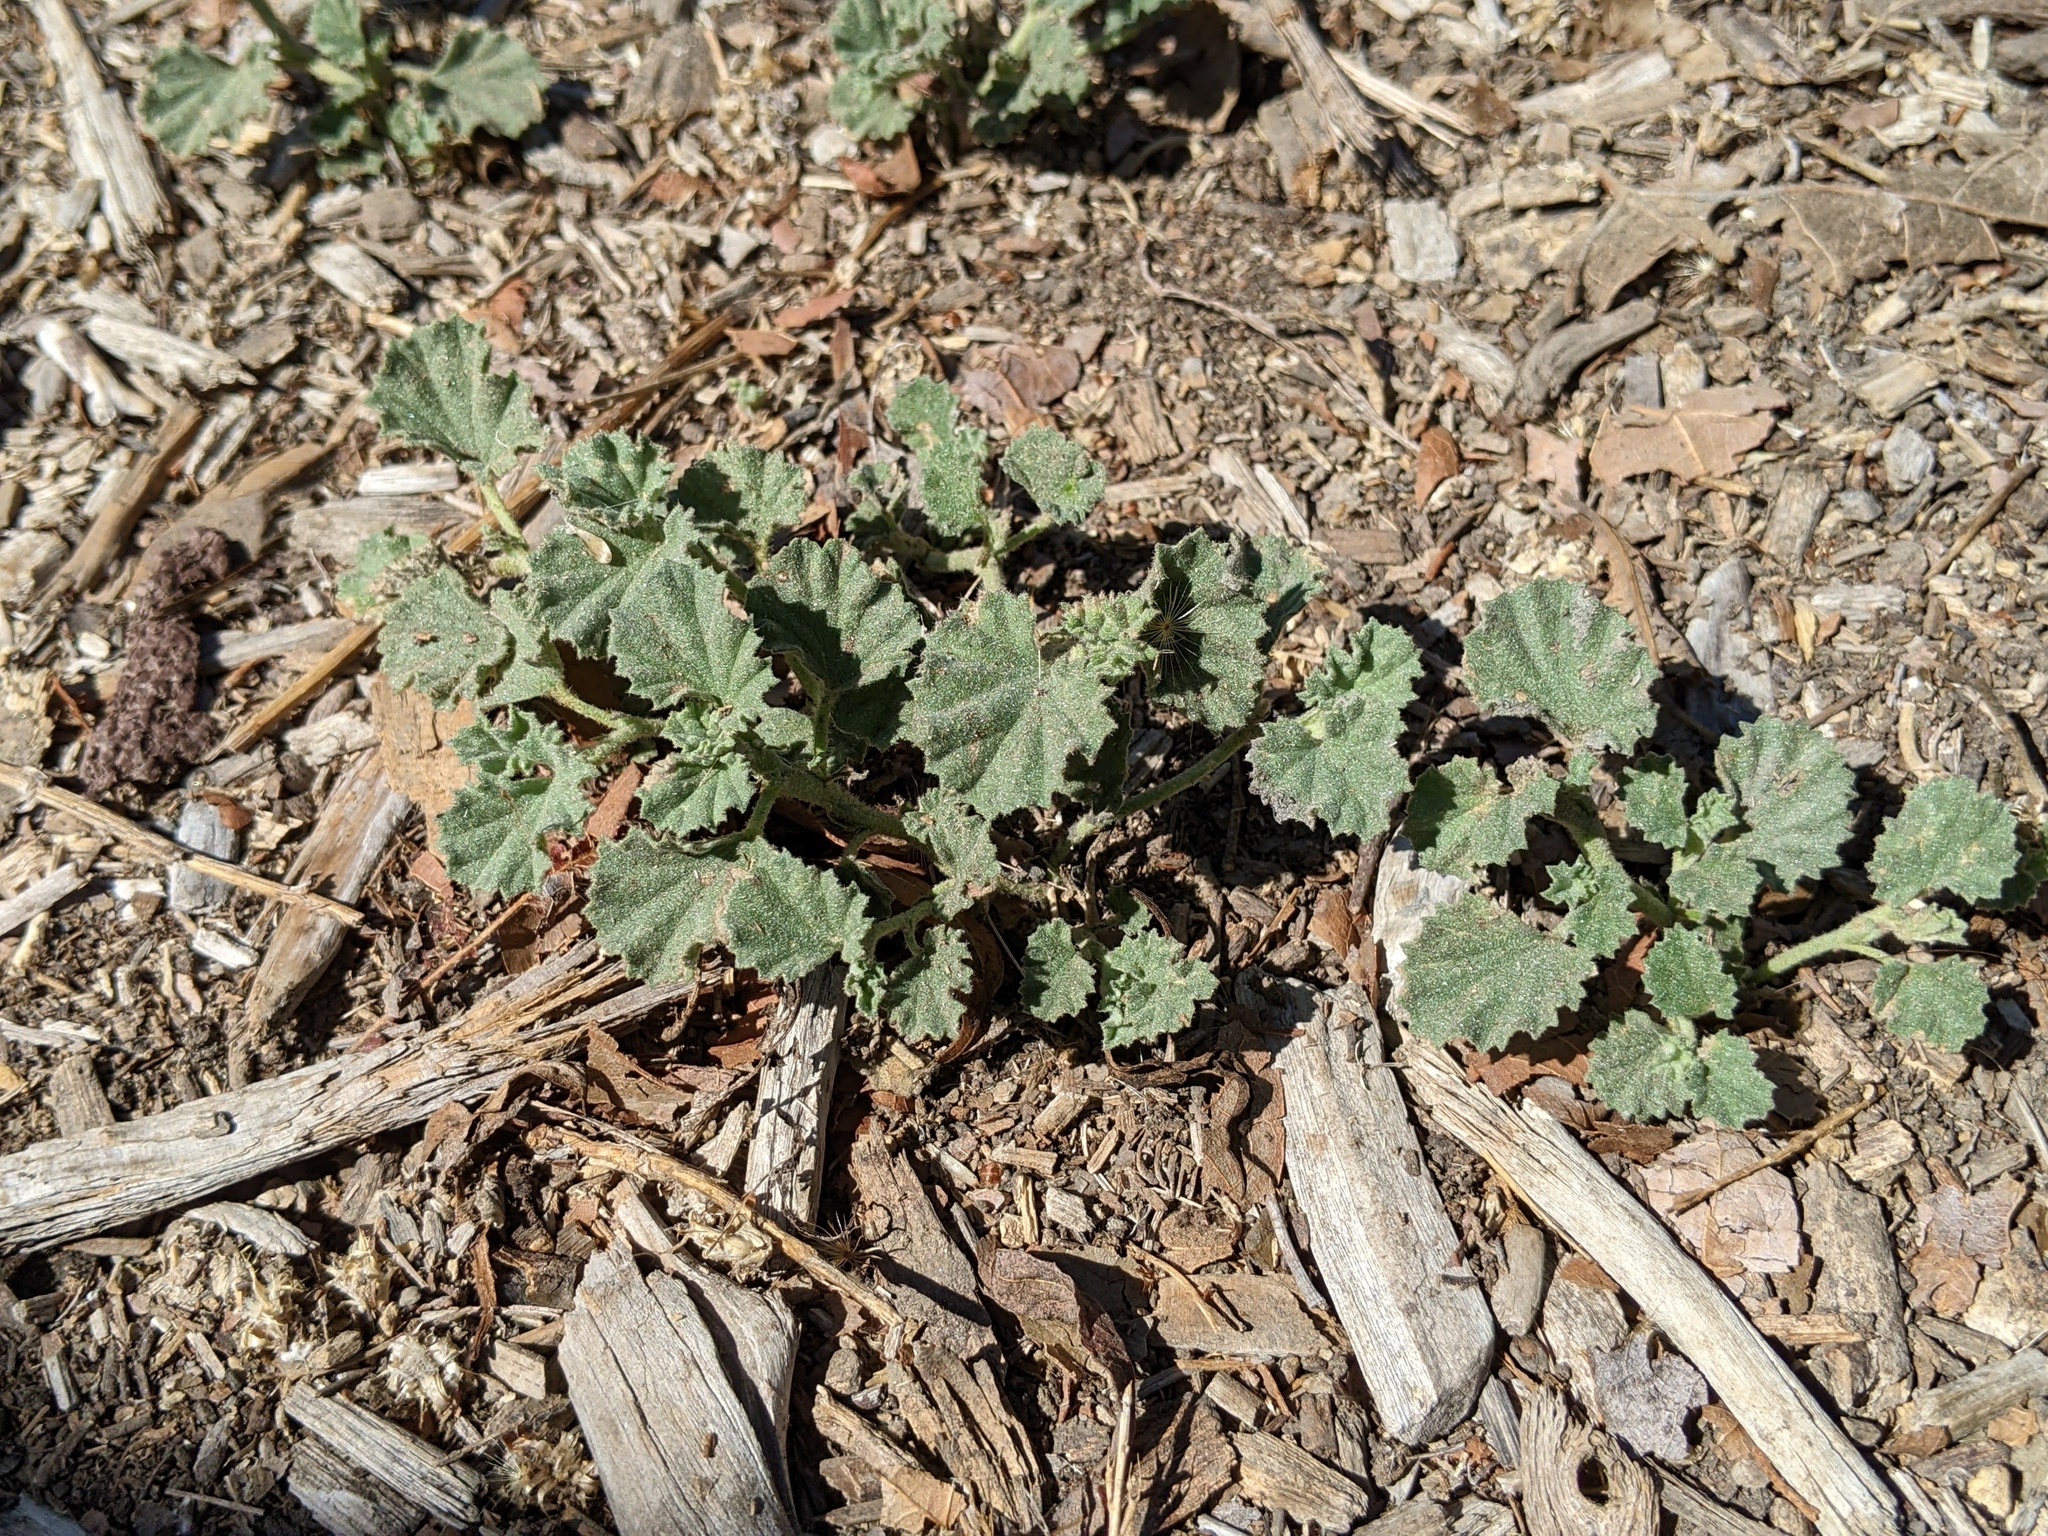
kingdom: Plantae
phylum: Tracheophyta
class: Magnoliopsida
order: Malvales
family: Malvaceae
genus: Malvella
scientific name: Malvella leprosa
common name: Alkali-mallow
